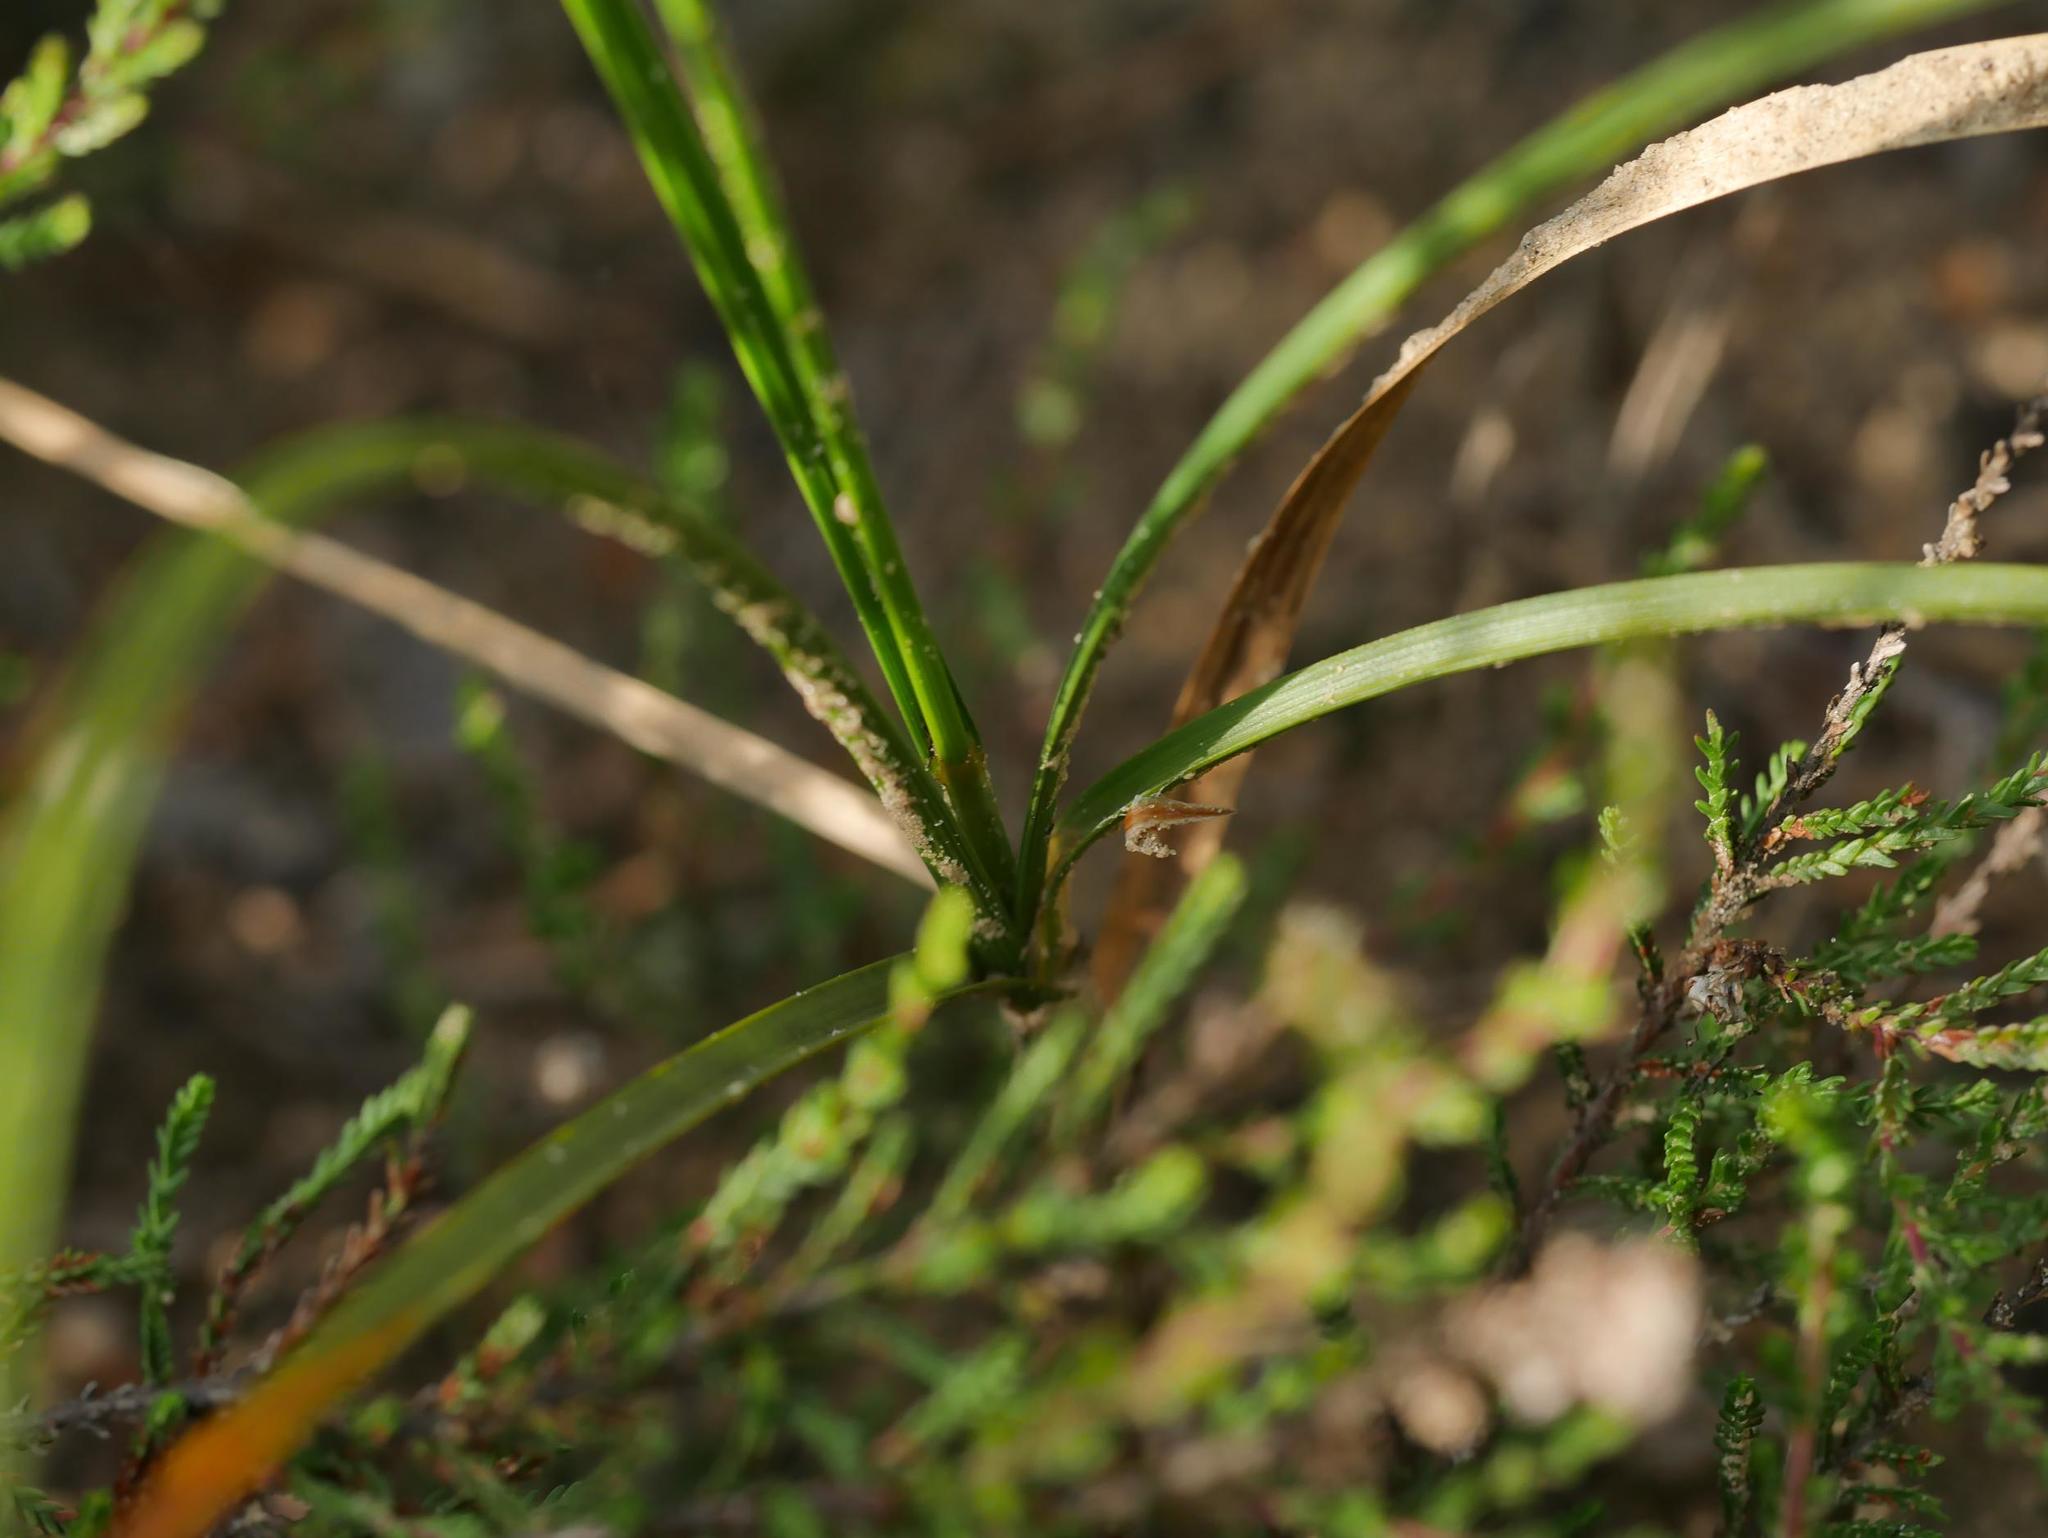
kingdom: Plantae
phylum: Tracheophyta
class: Magnoliopsida
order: Ericales
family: Ericaceae
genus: Calluna
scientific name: Calluna vulgaris
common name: Heather
